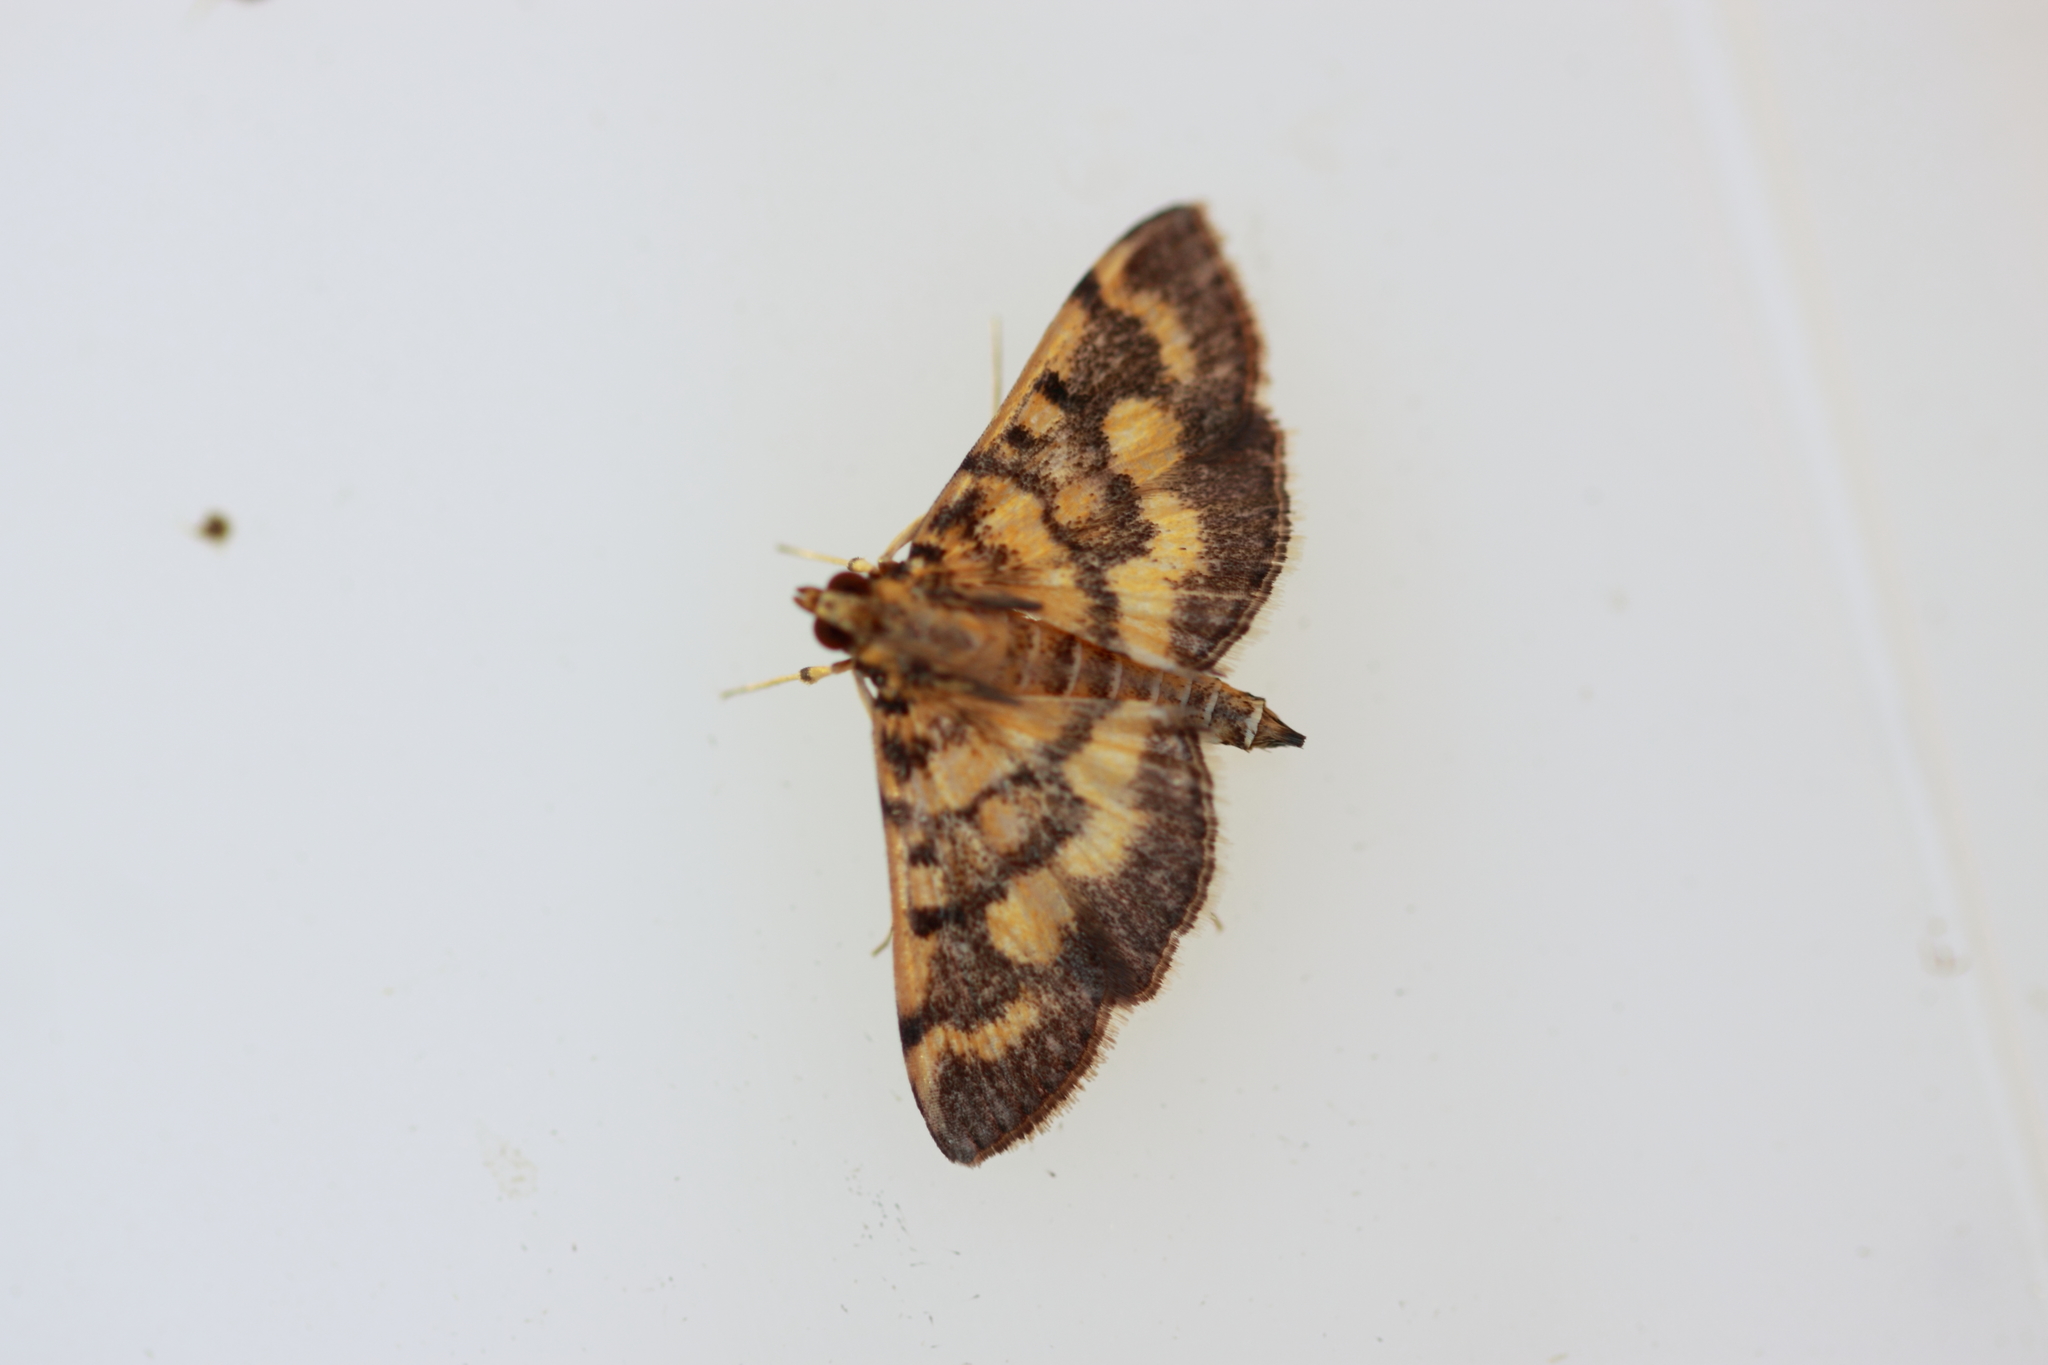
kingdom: Animalia
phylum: Arthropoda
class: Insecta
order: Lepidoptera
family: Crambidae
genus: Omiodes
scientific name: Omiodes diemenalis
